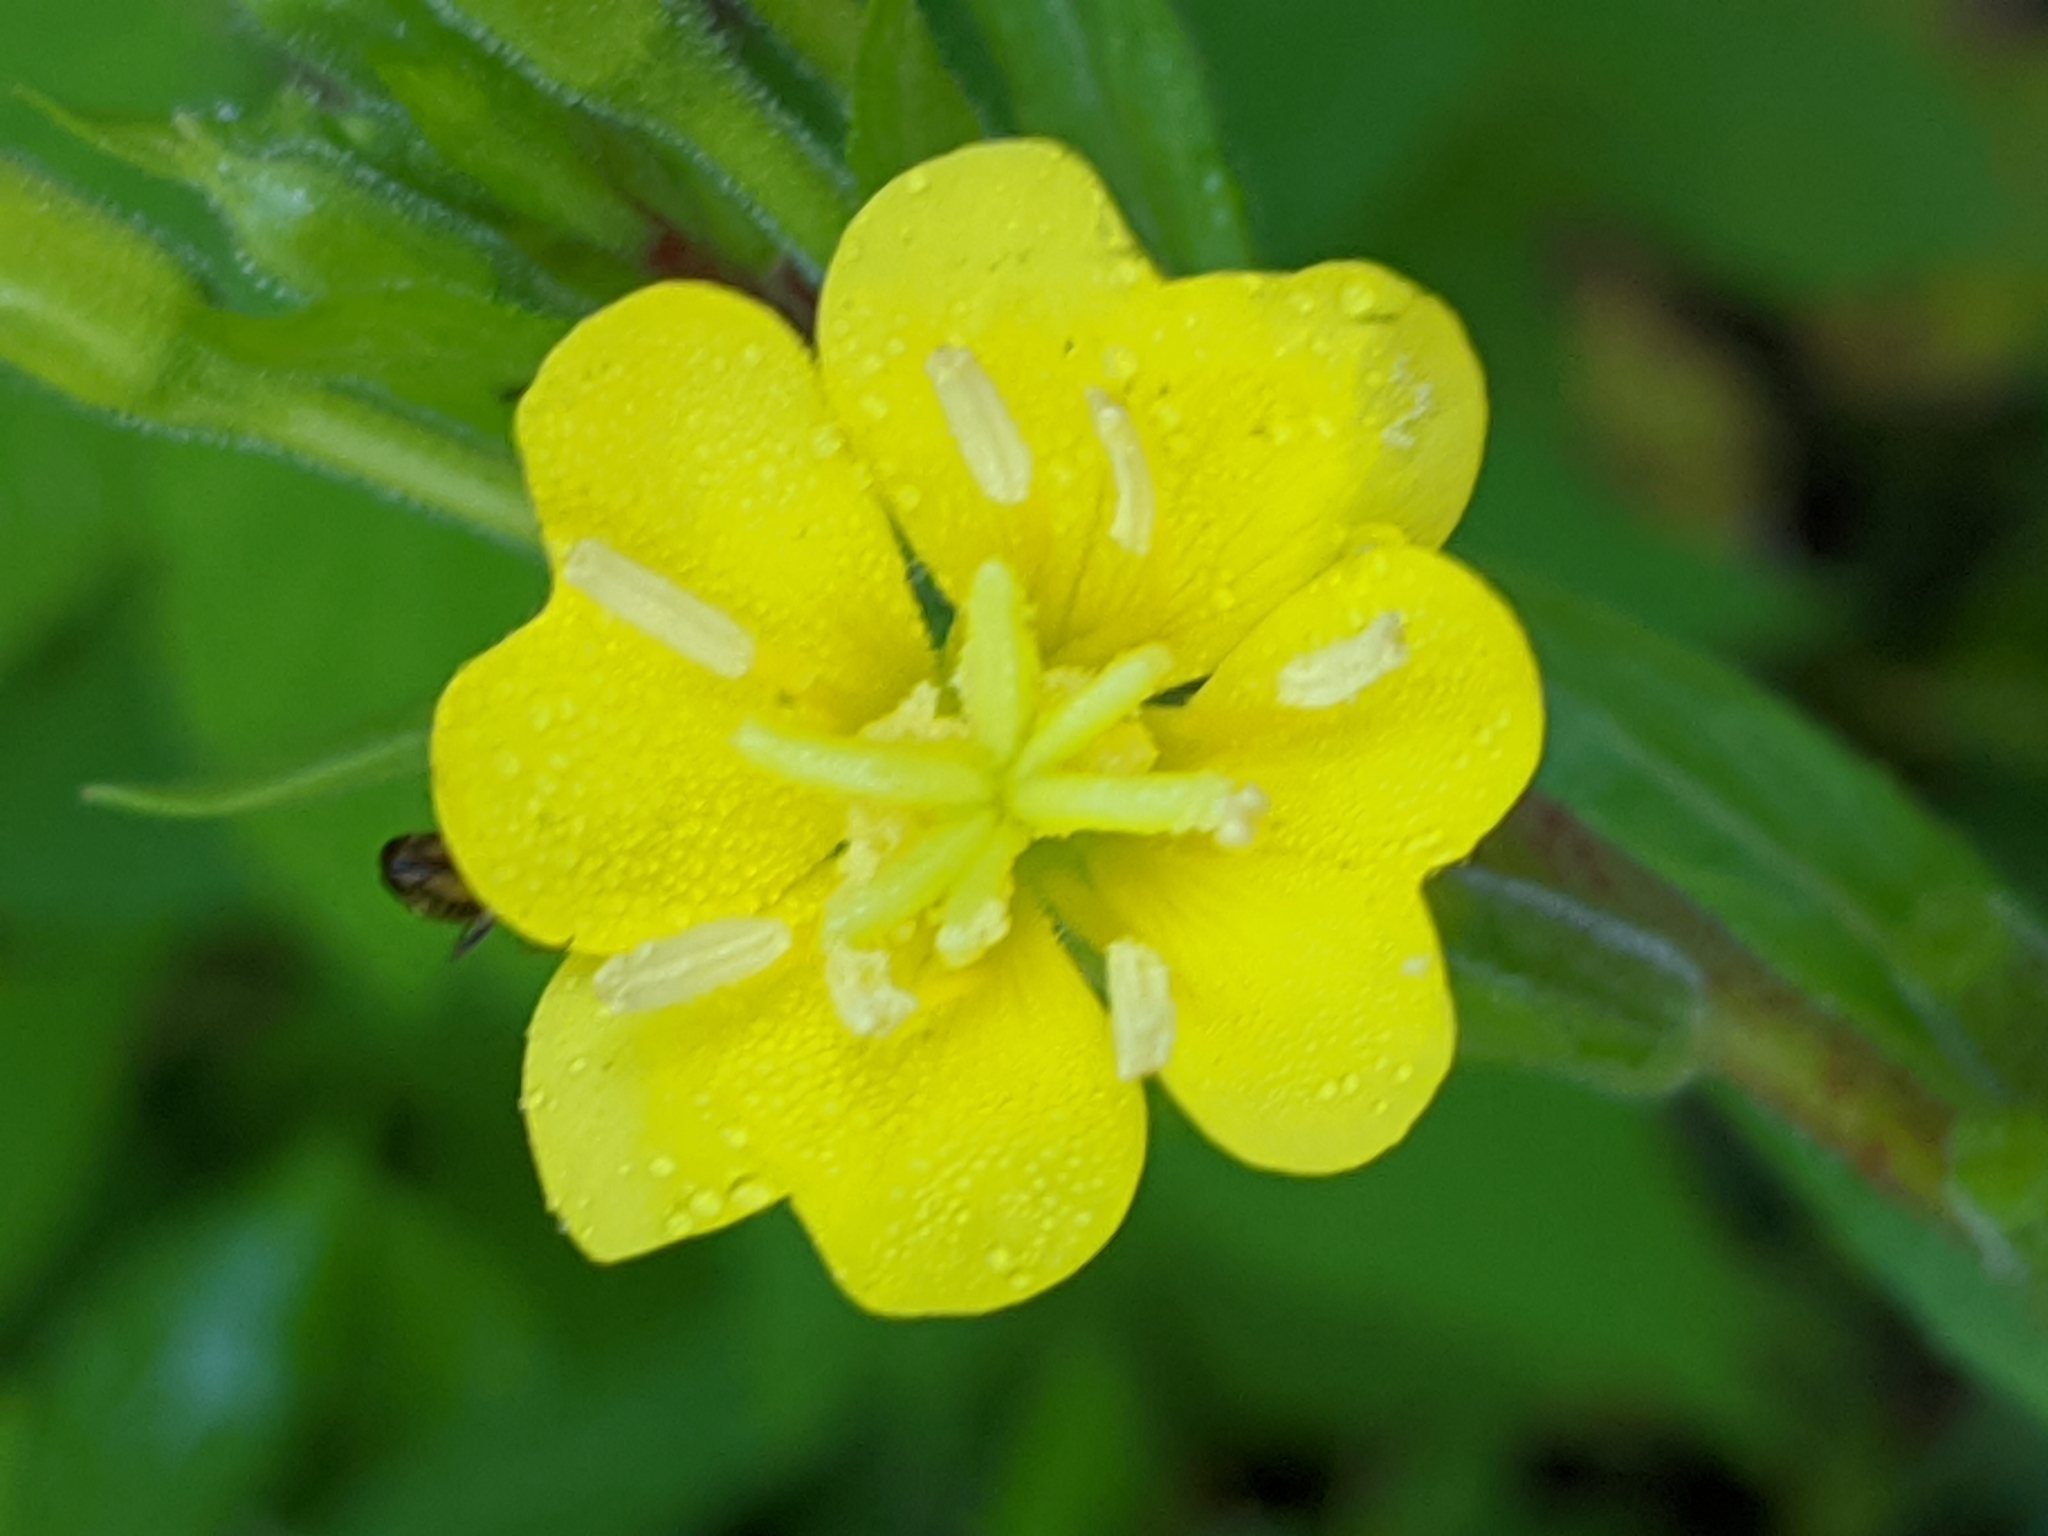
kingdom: Plantae
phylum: Tracheophyta
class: Magnoliopsida
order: Myrtales
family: Onagraceae
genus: Oenothera
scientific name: Oenothera biennis
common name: Common evening-primrose
